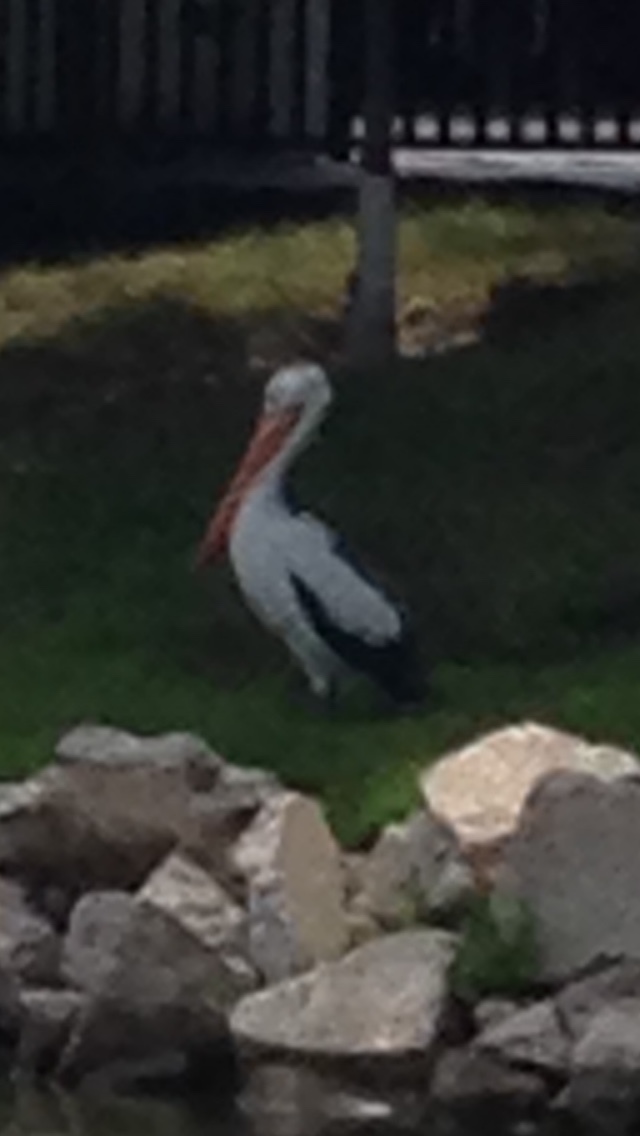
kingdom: Animalia
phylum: Chordata
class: Aves
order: Pelecaniformes
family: Pelecanidae
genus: Pelecanus
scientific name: Pelecanus erythrorhynchos
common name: American white pelican
